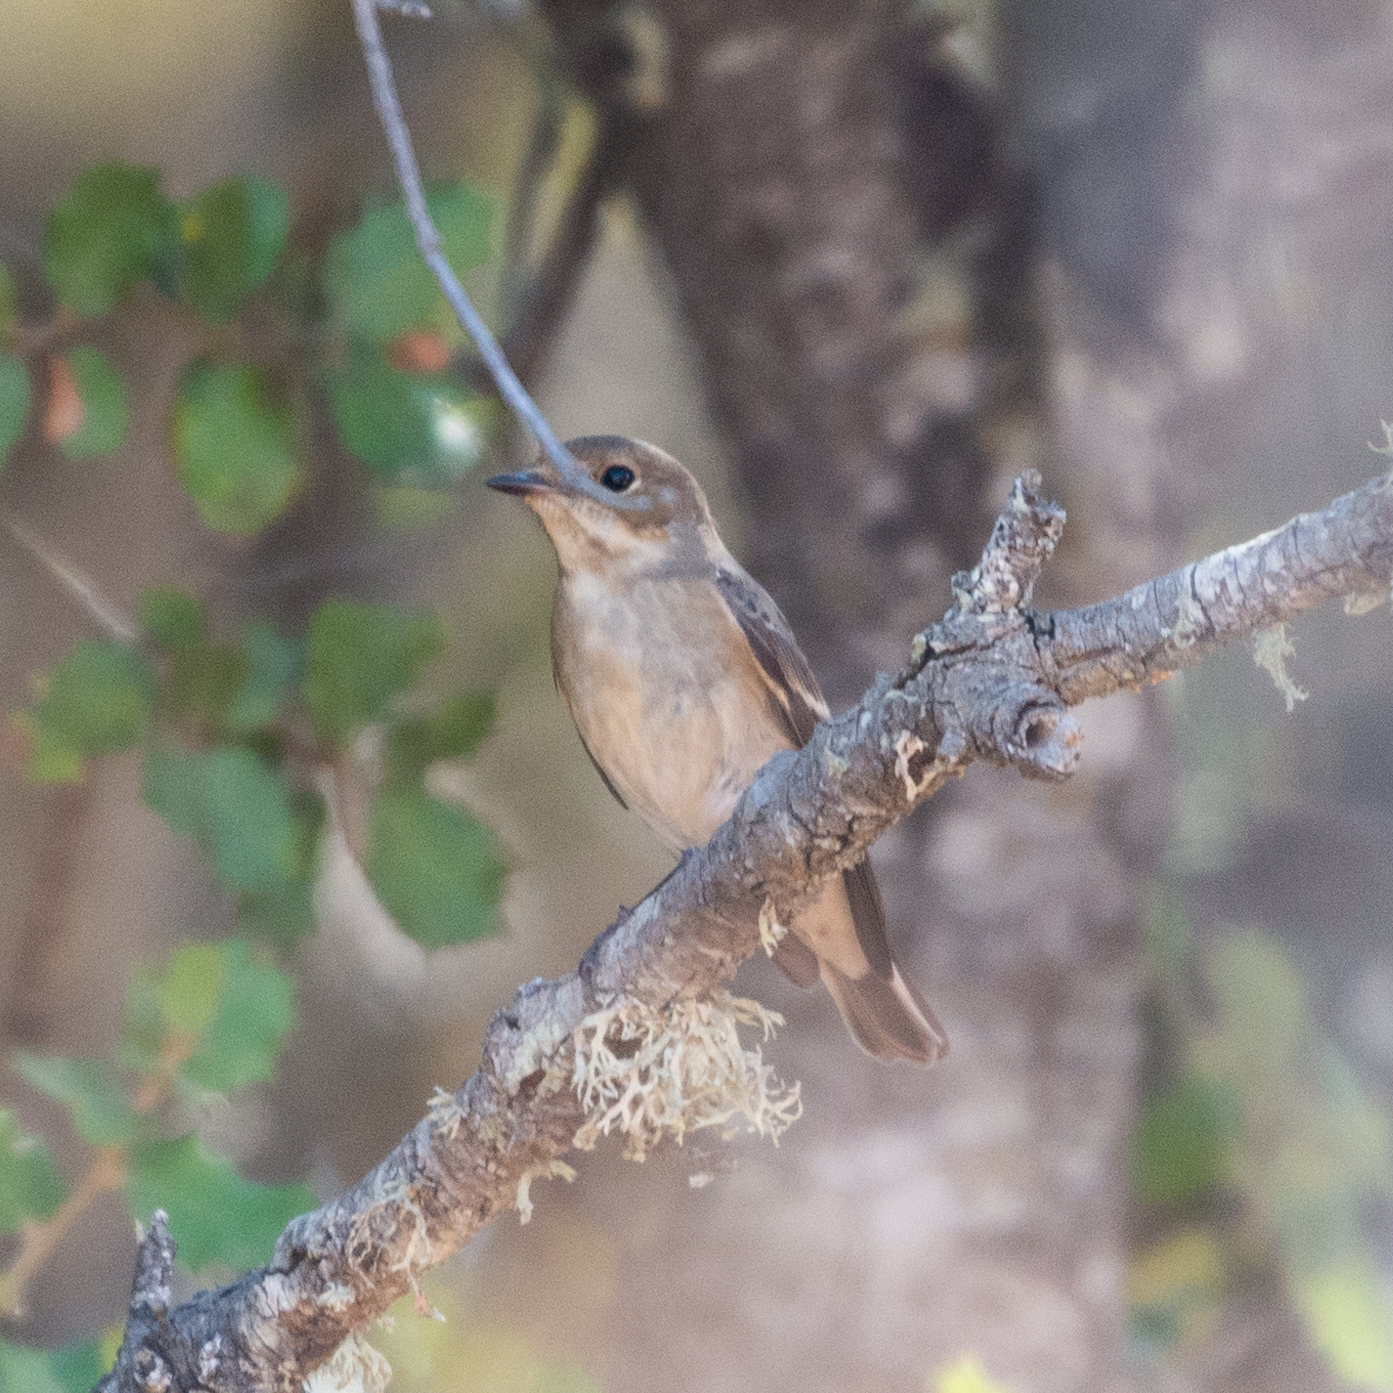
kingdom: Animalia
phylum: Chordata
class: Aves
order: Passeriformes
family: Muscicapidae
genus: Ficedula
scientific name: Ficedula hypoleuca
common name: European pied flycatcher
